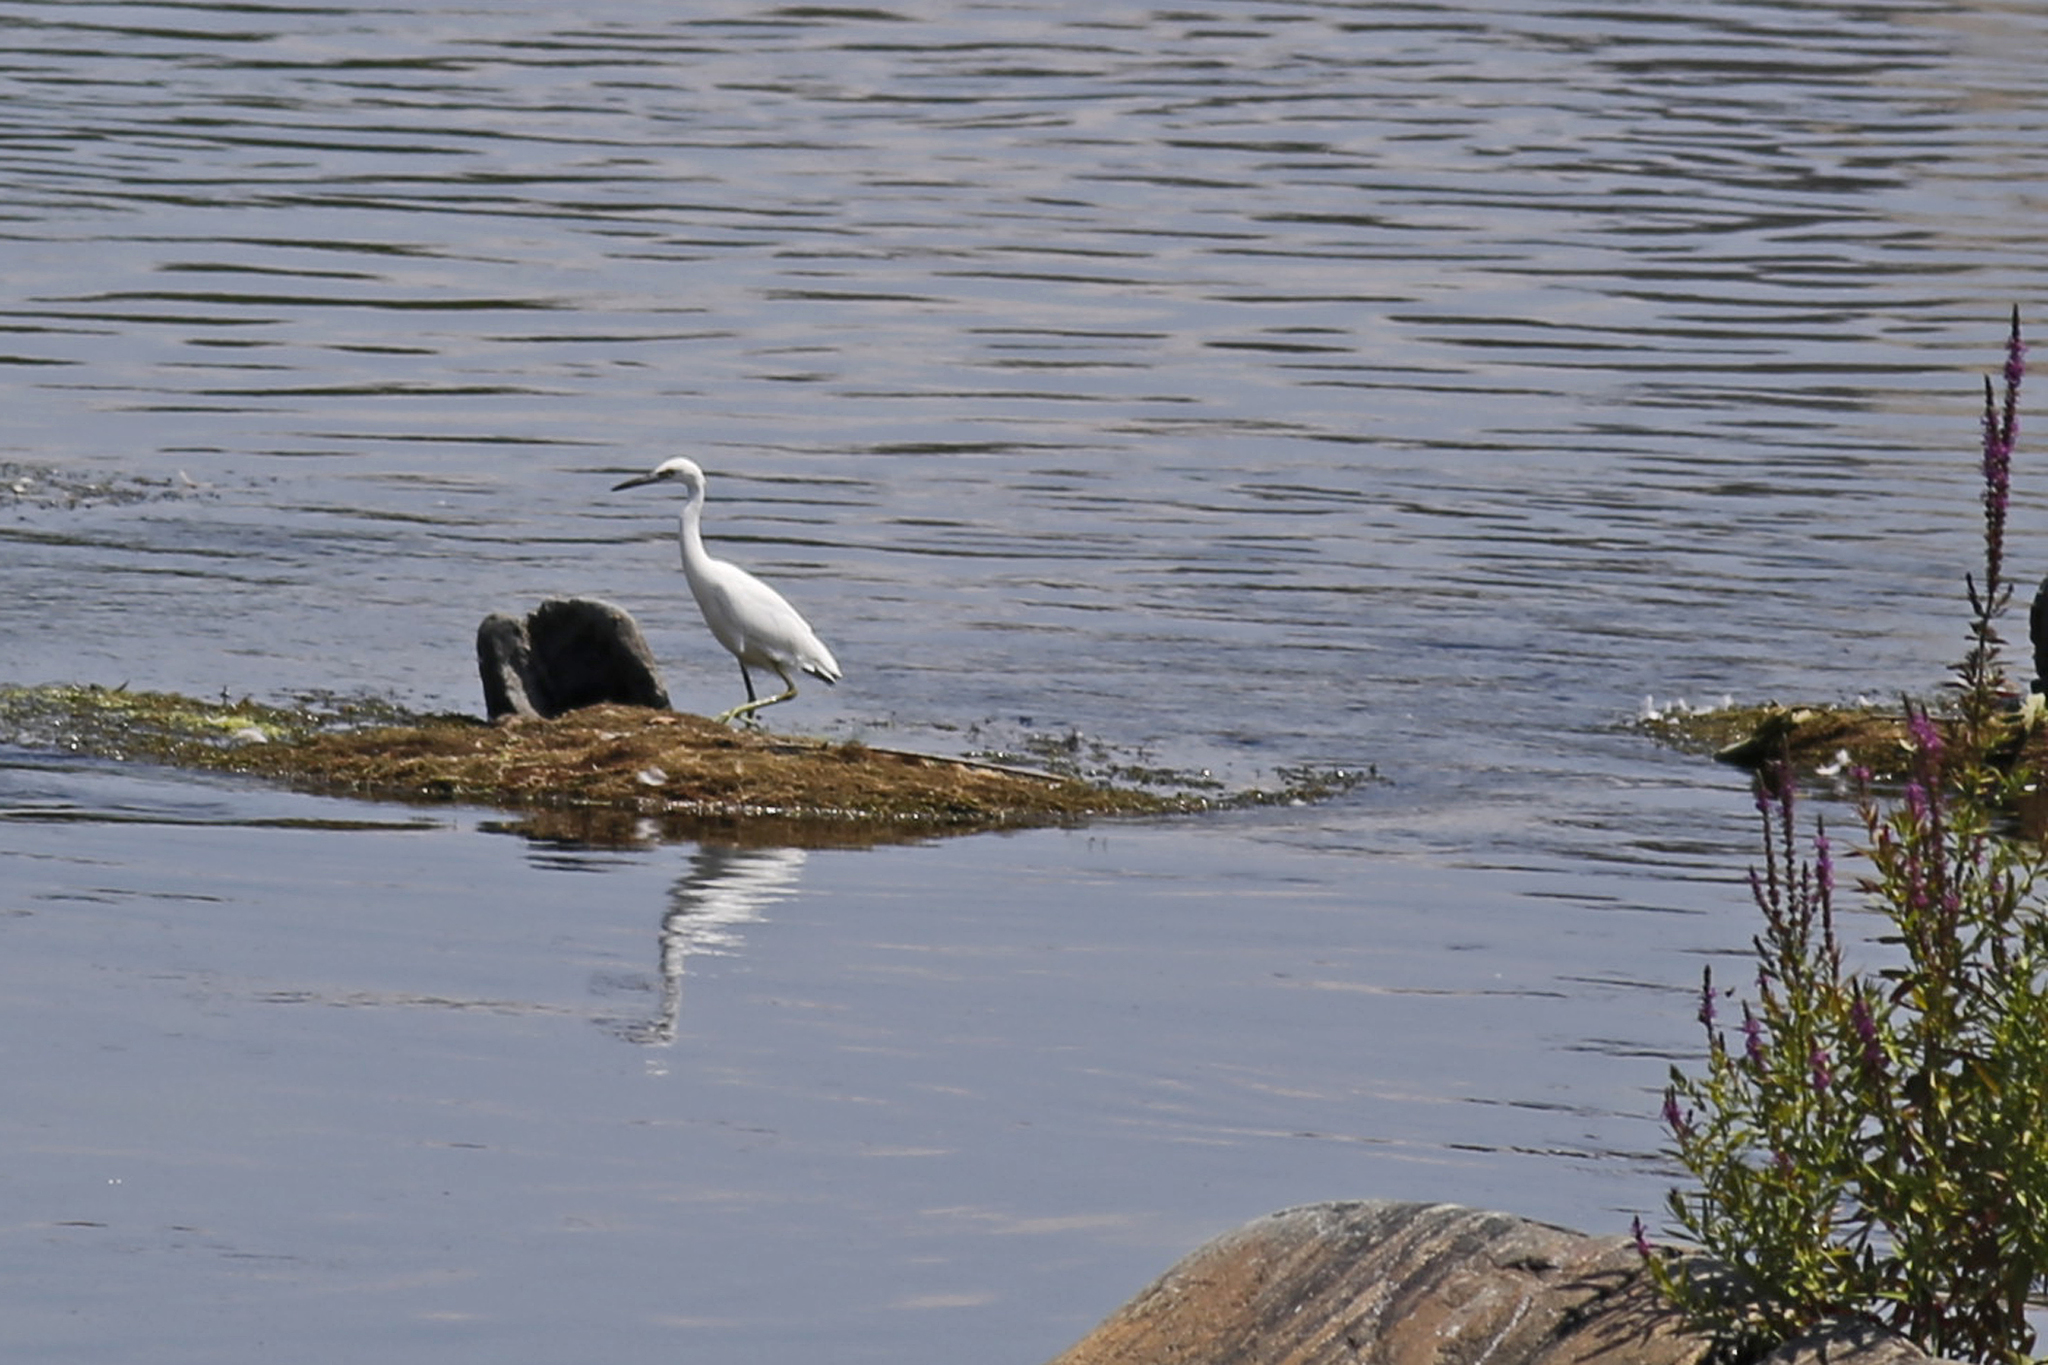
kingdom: Animalia
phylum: Chordata
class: Aves
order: Pelecaniformes
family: Ardeidae
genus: Egretta
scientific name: Egretta caerulea
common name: Little blue heron
